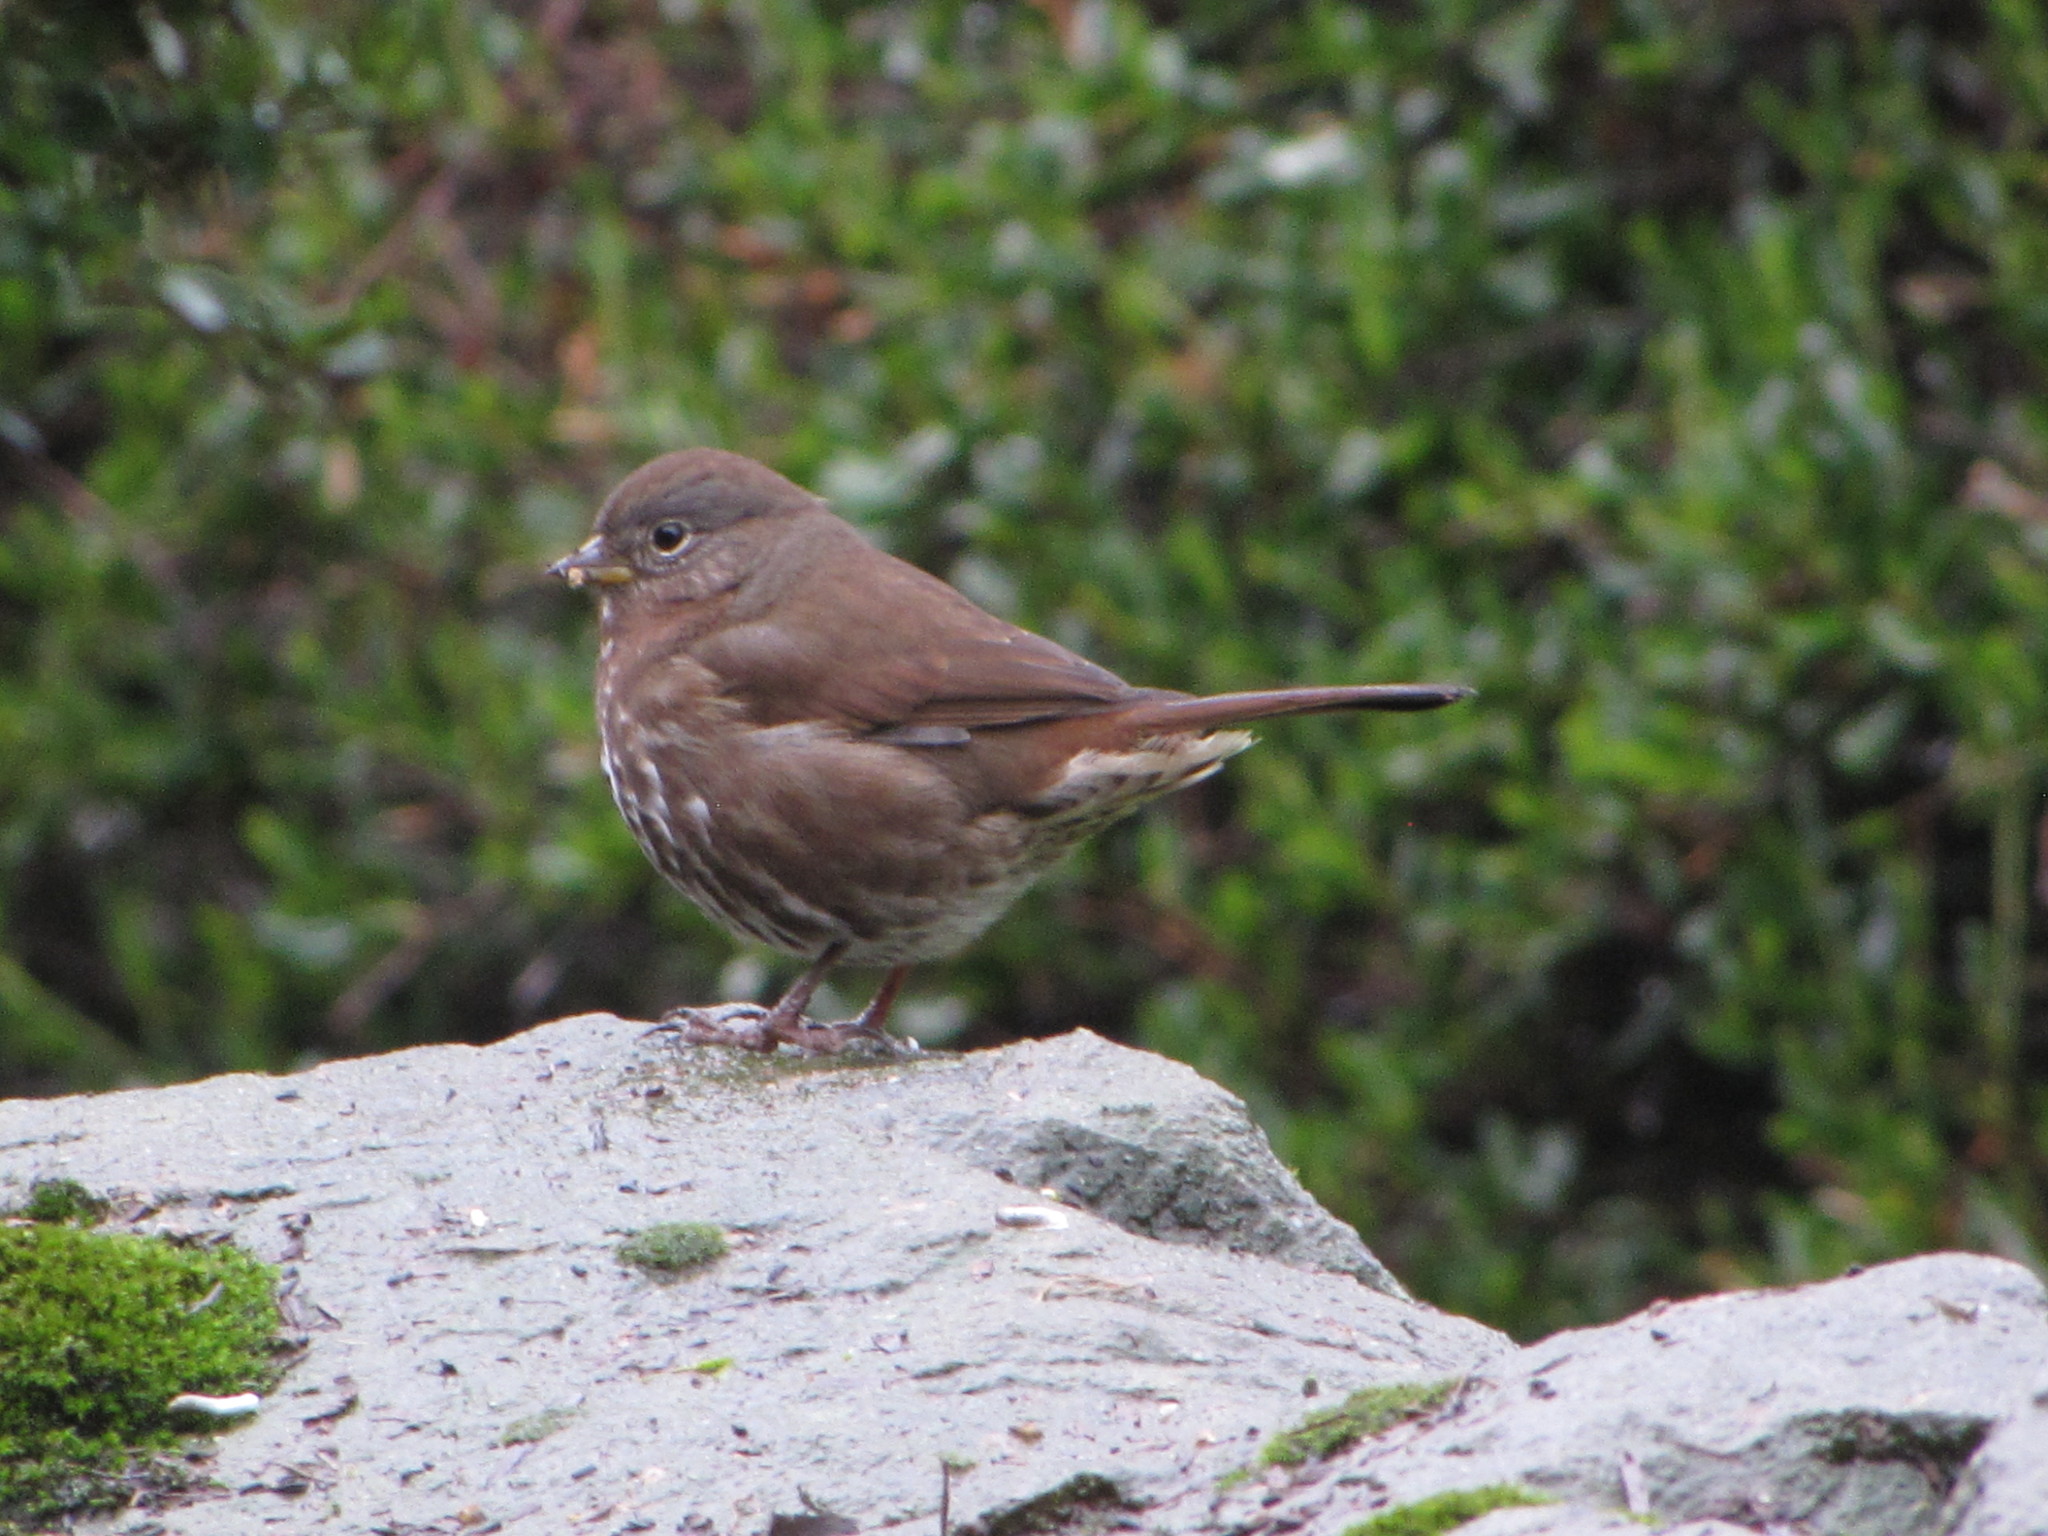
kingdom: Animalia
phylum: Chordata
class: Aves
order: Passeriformes
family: Passerellidae
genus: Passerella
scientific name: Passerella iliaca
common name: Fox sparrow
